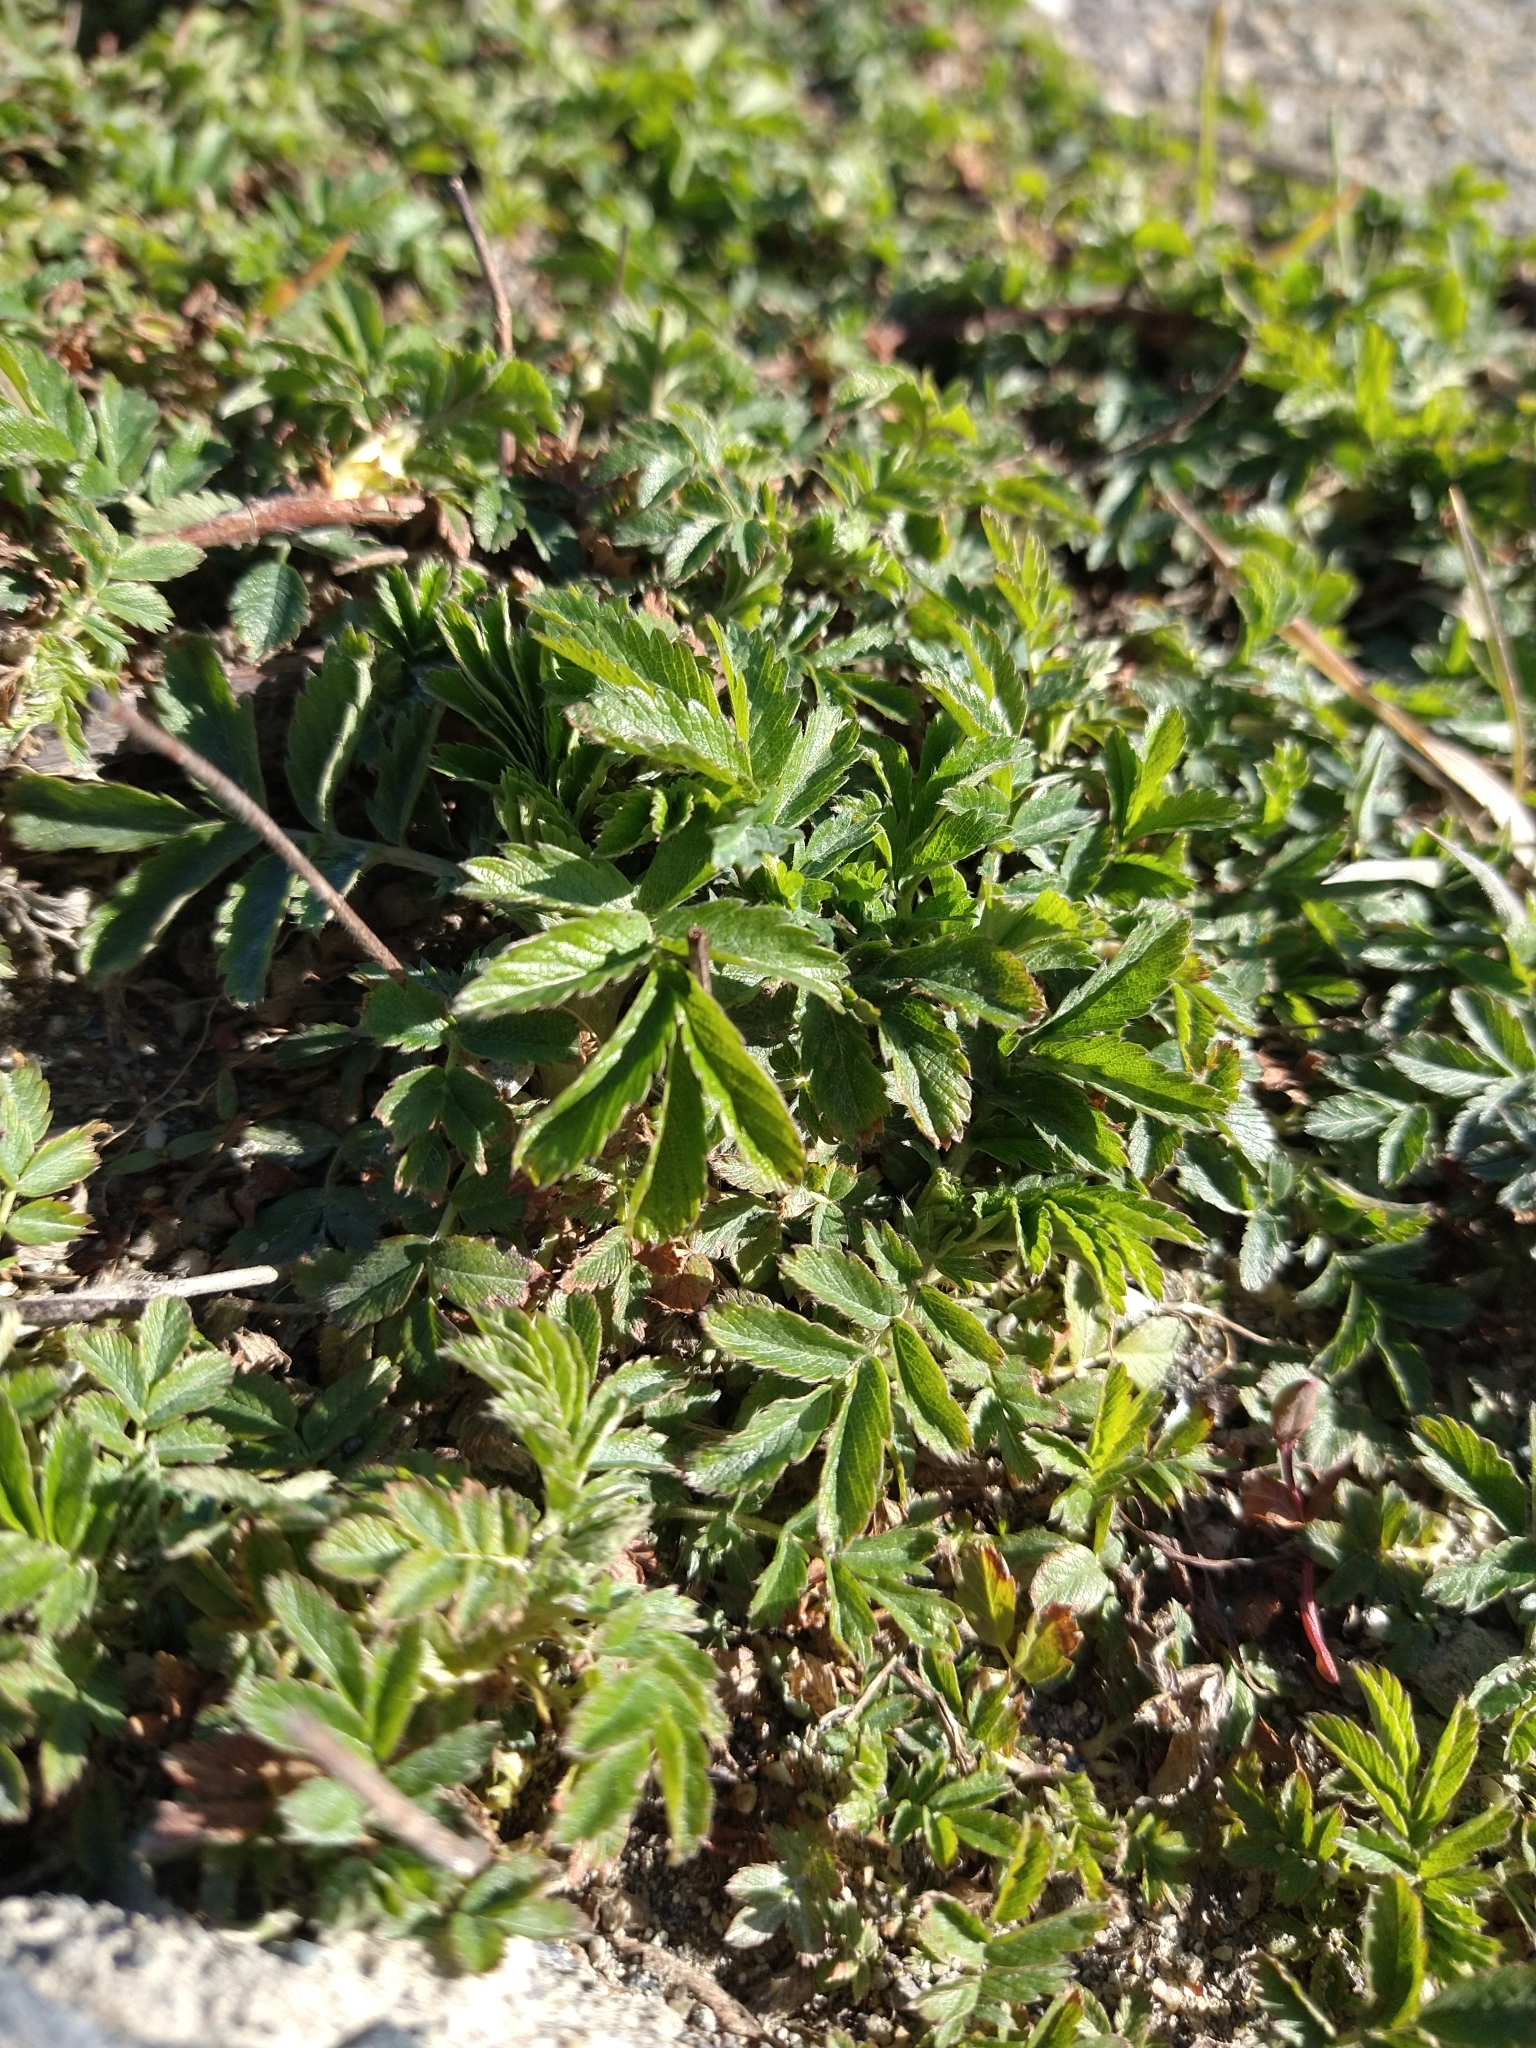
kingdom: Plantae
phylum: Tracheophyta
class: Magnoliopsida
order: Rosales
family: Rosaceae
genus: Acaena
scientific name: Acaena magellanica
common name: New zealand burr
